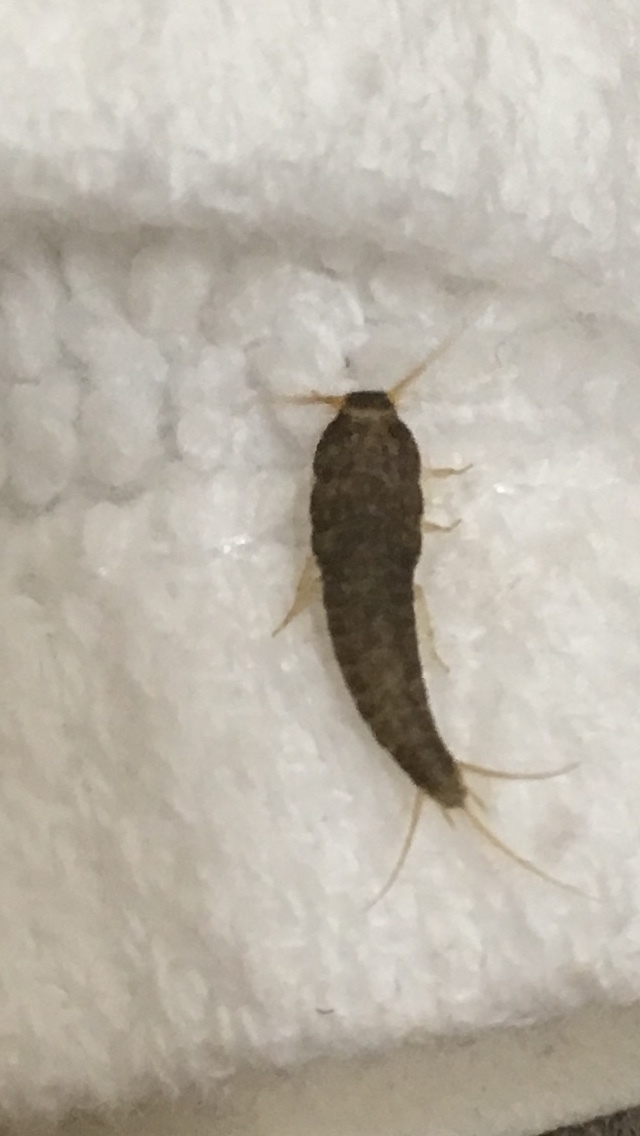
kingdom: Animalia
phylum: Arthropoda
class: Insecta
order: Zygentoma
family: Lepismatidae
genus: Lepisma
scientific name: Lepisma saccharinum
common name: Silverfish
